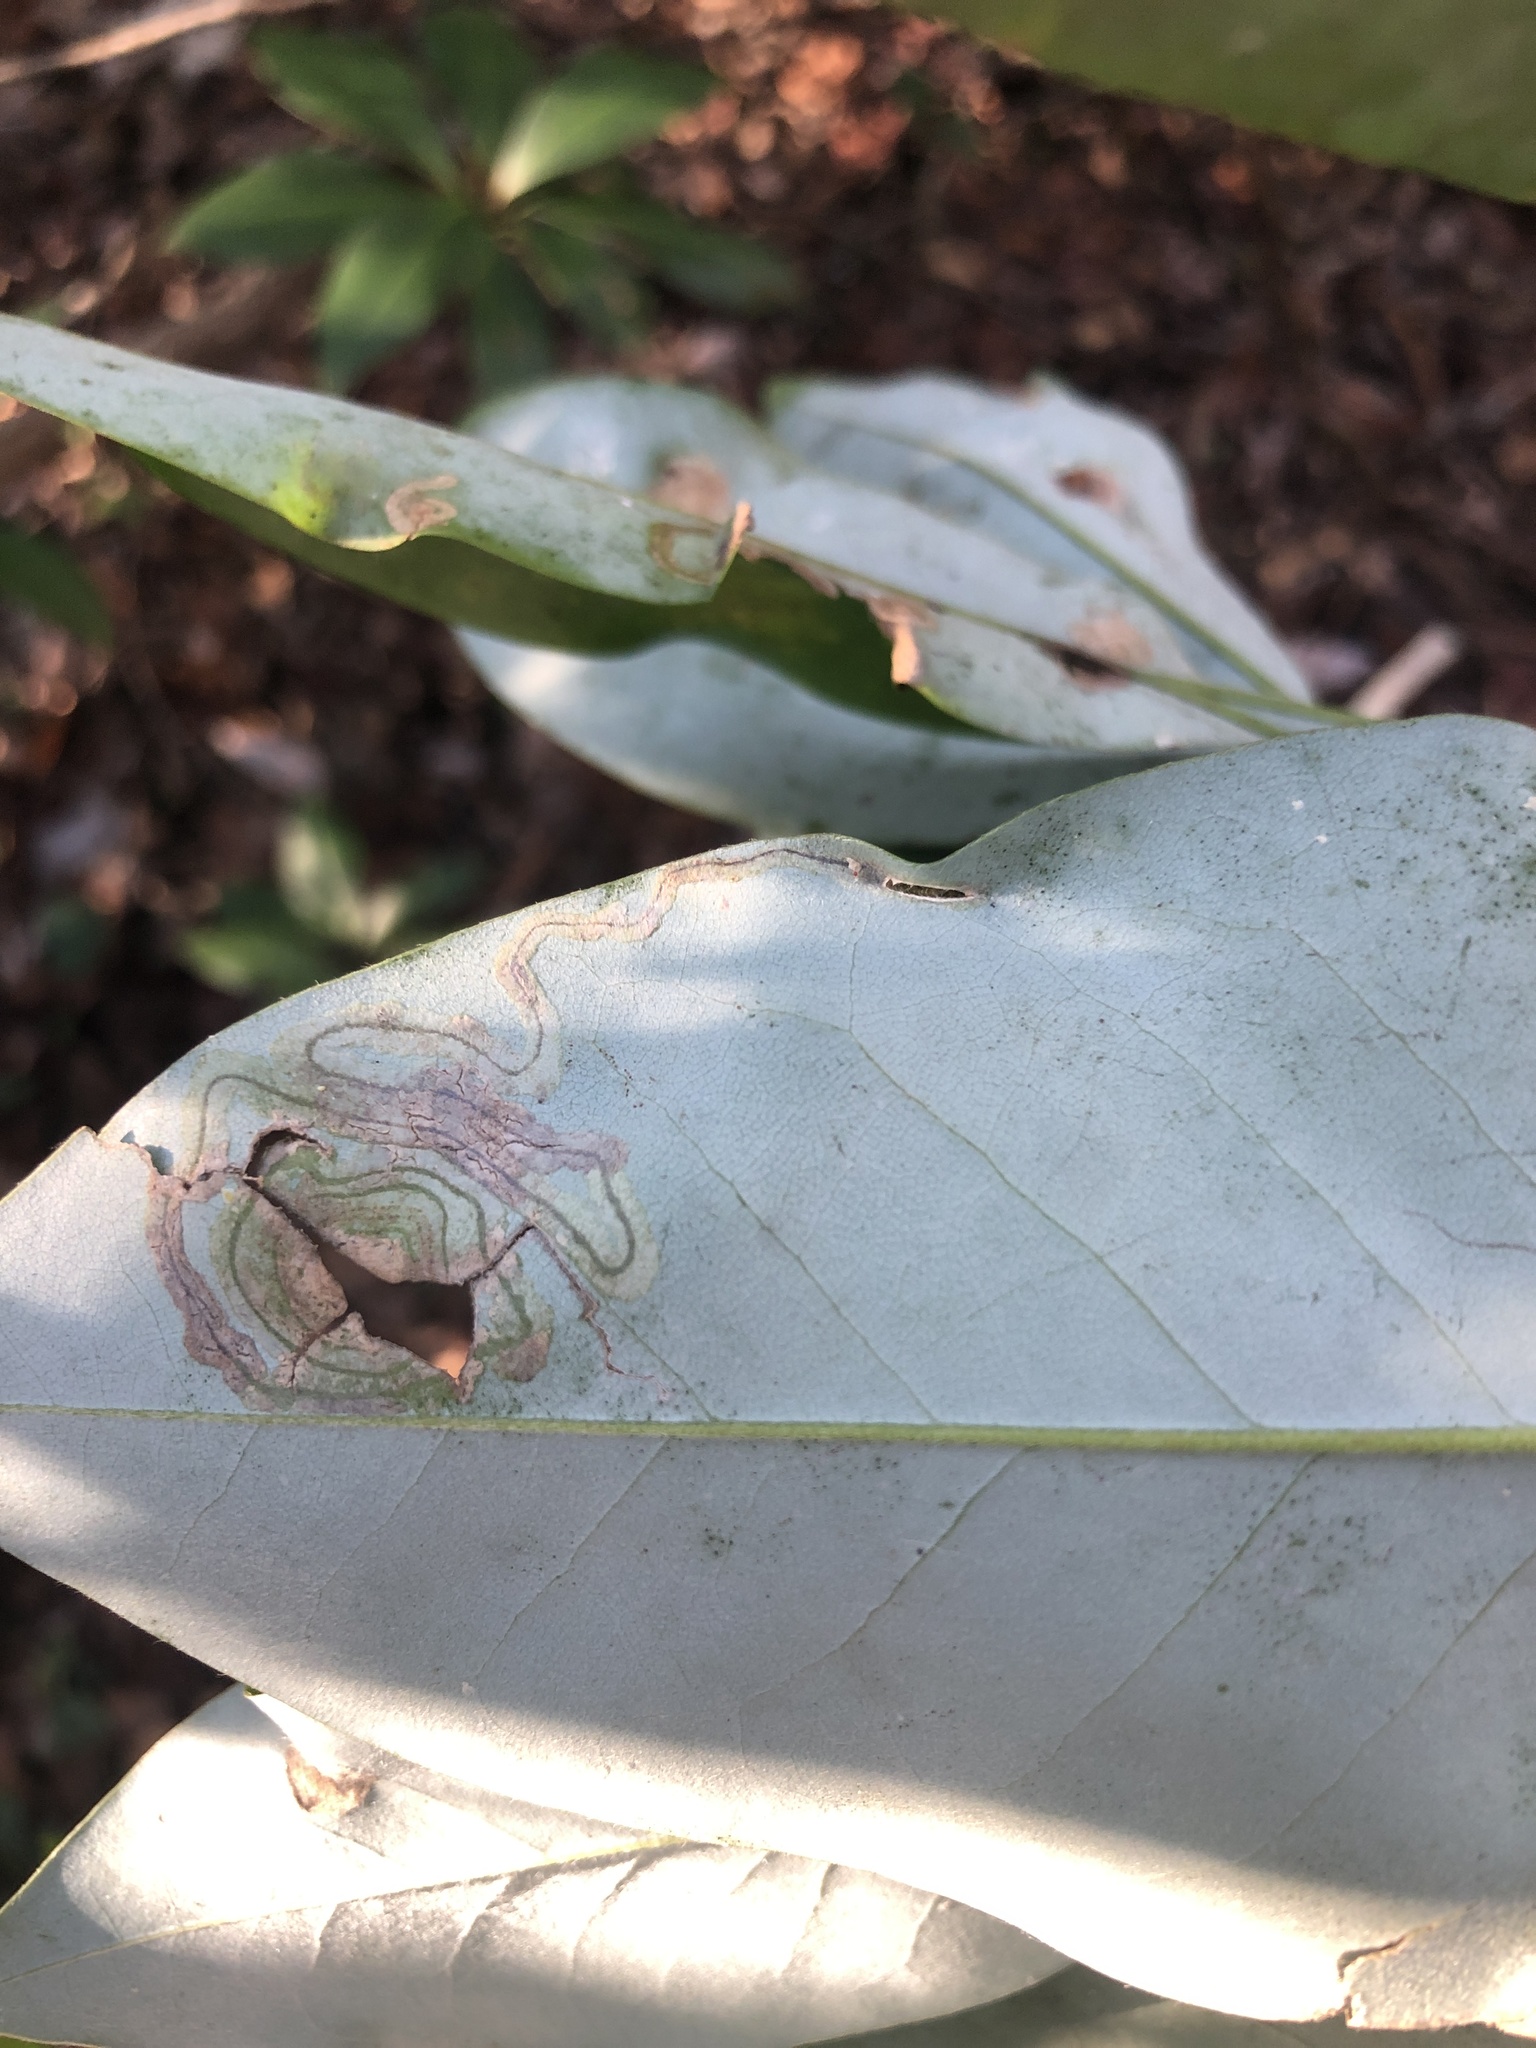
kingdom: Animalia
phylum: Arthropoda
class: Insecta
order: Lepidoptera
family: Gracillariidae
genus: Phyllocnistis
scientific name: Phyllocnistis liriodendronella
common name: Tulip tree leaf miner
